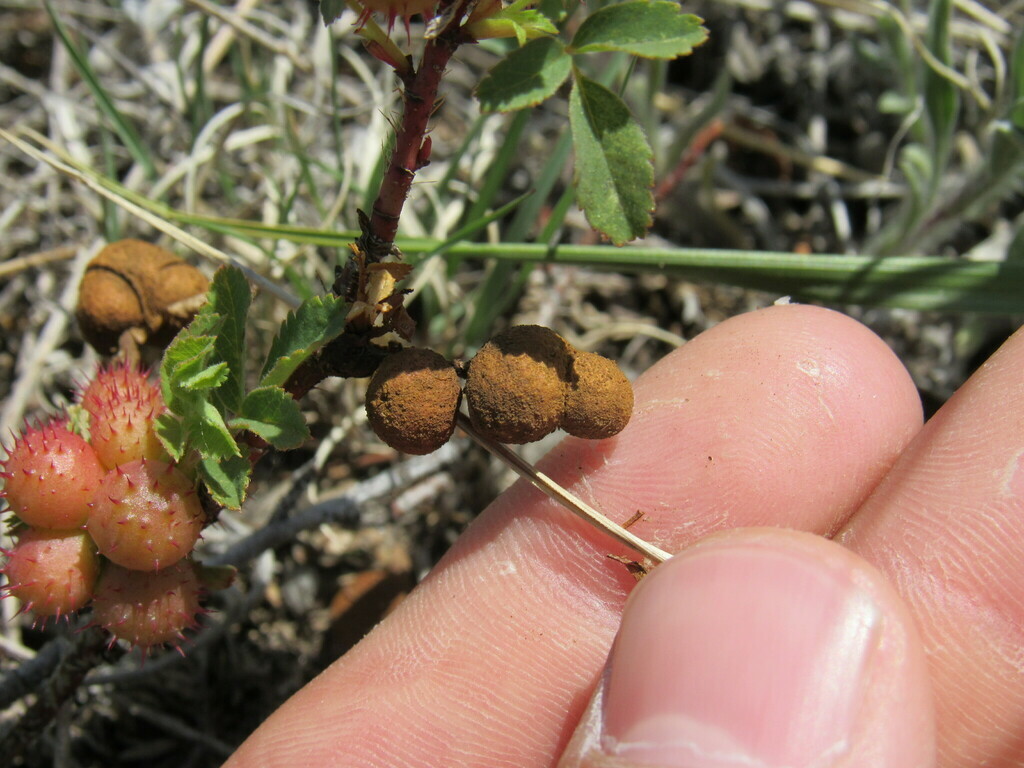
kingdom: Animalia
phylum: Arthropoda
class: Insecta
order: Hymenoptera
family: Cynipidae
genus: Diplolepis
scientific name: Diplolepis ignota
